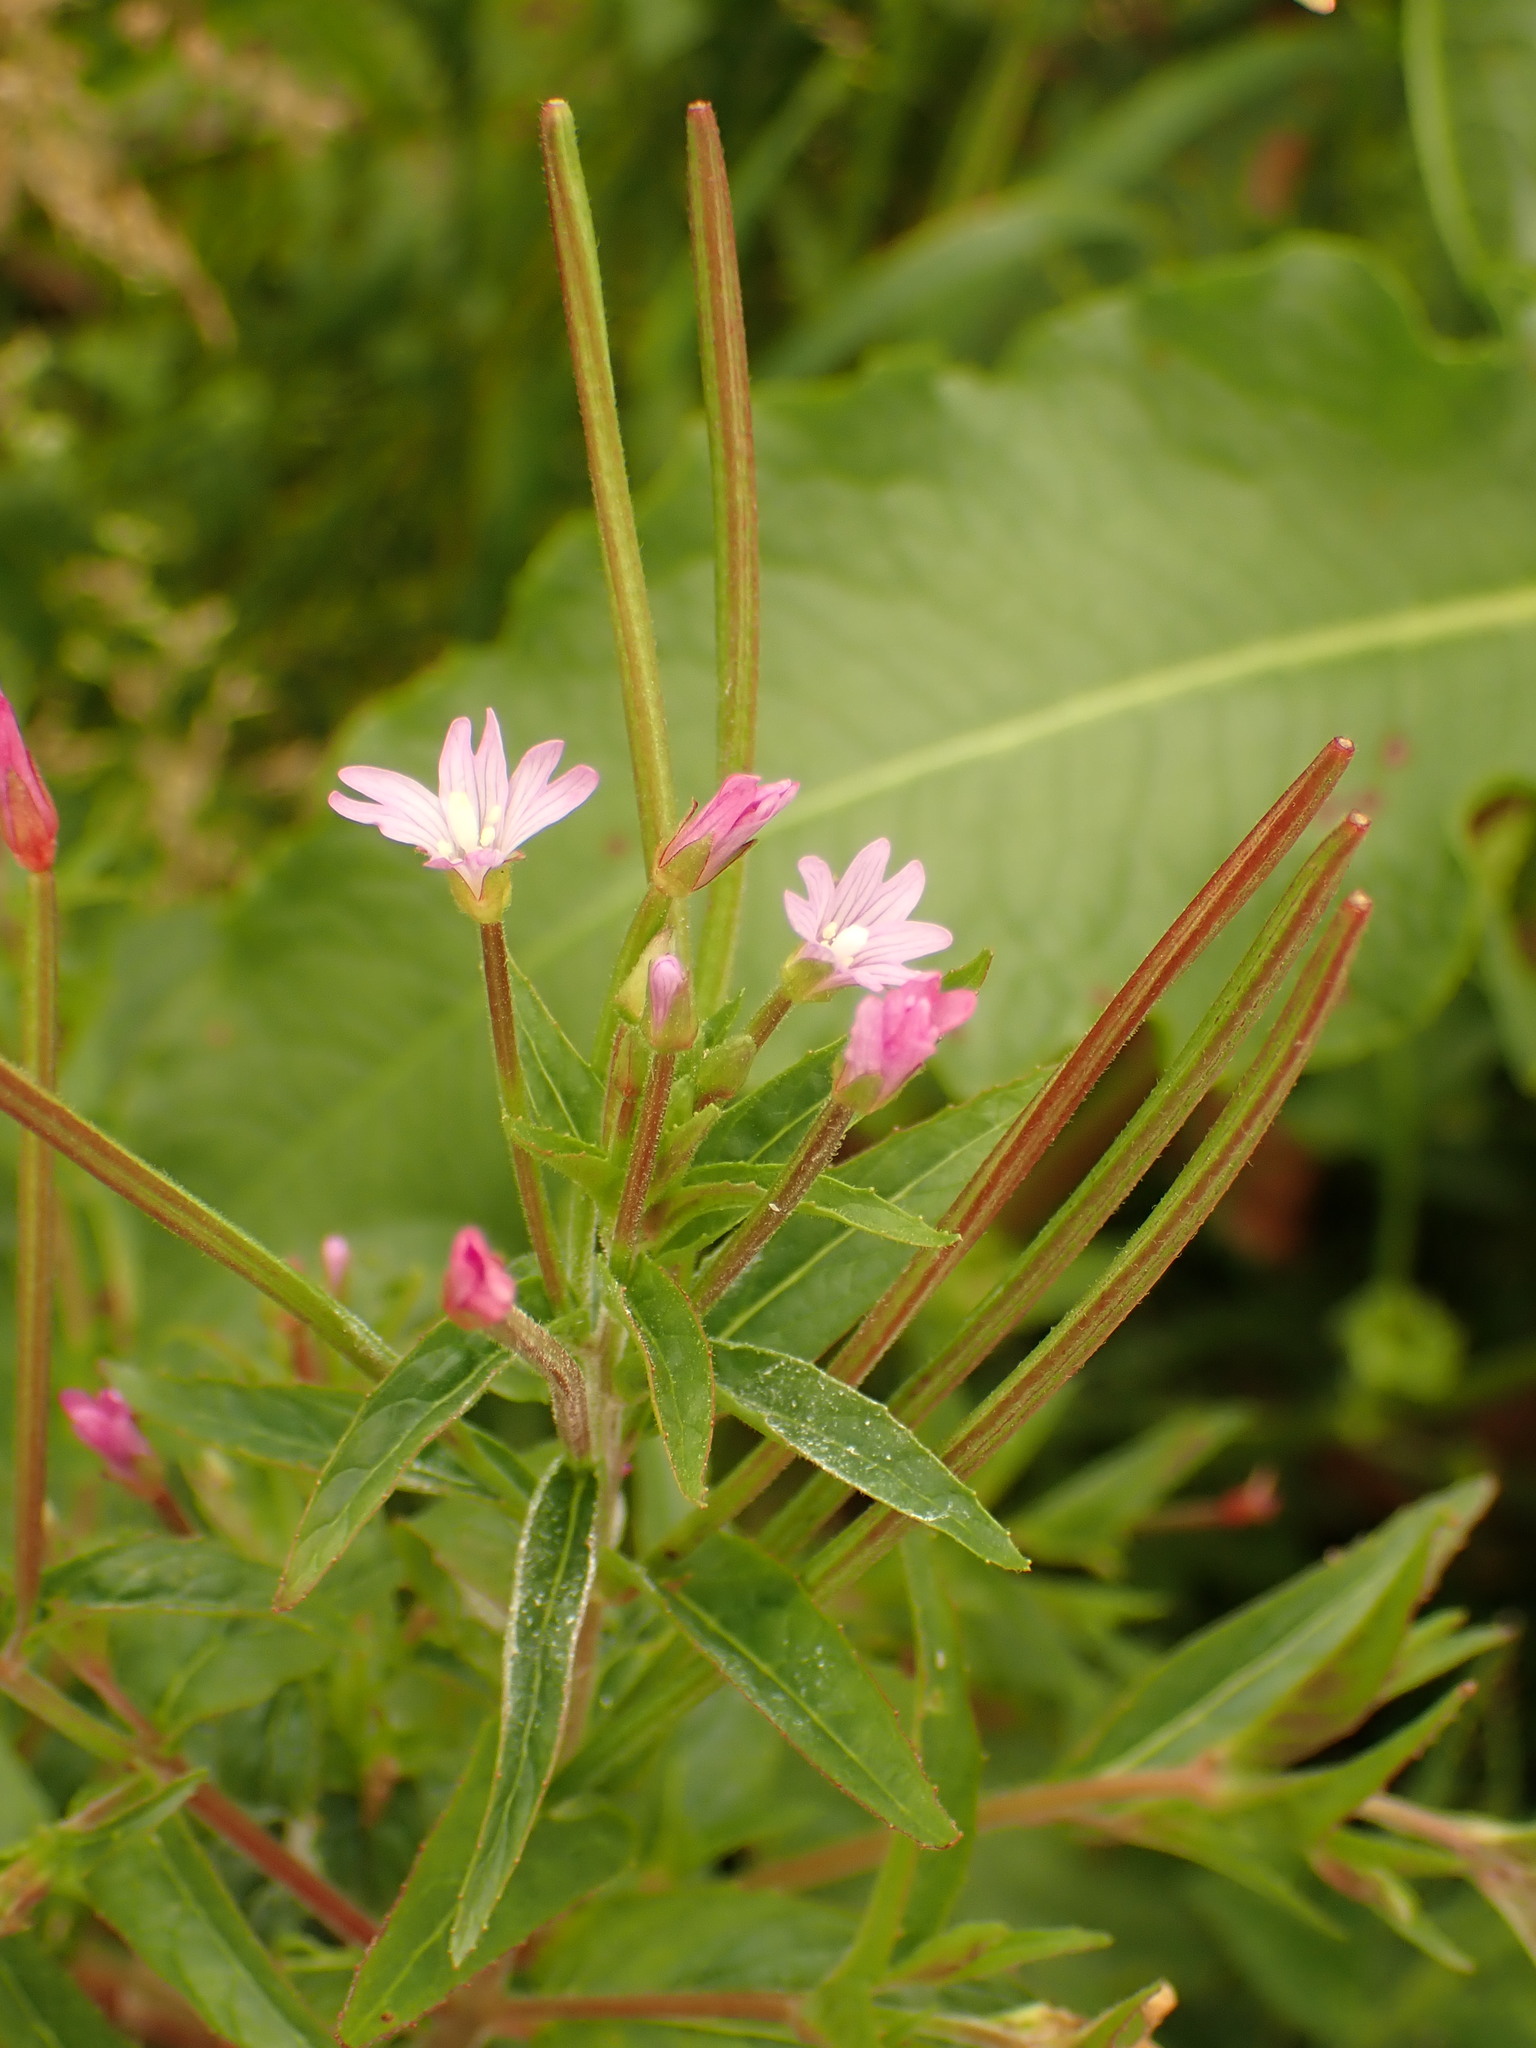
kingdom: Plantae
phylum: Tracheophyta
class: Magnoliopsida
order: Myrtales
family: Onagraceae
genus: Epilobium
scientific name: Epilobium ciliatum
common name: American willowherb
